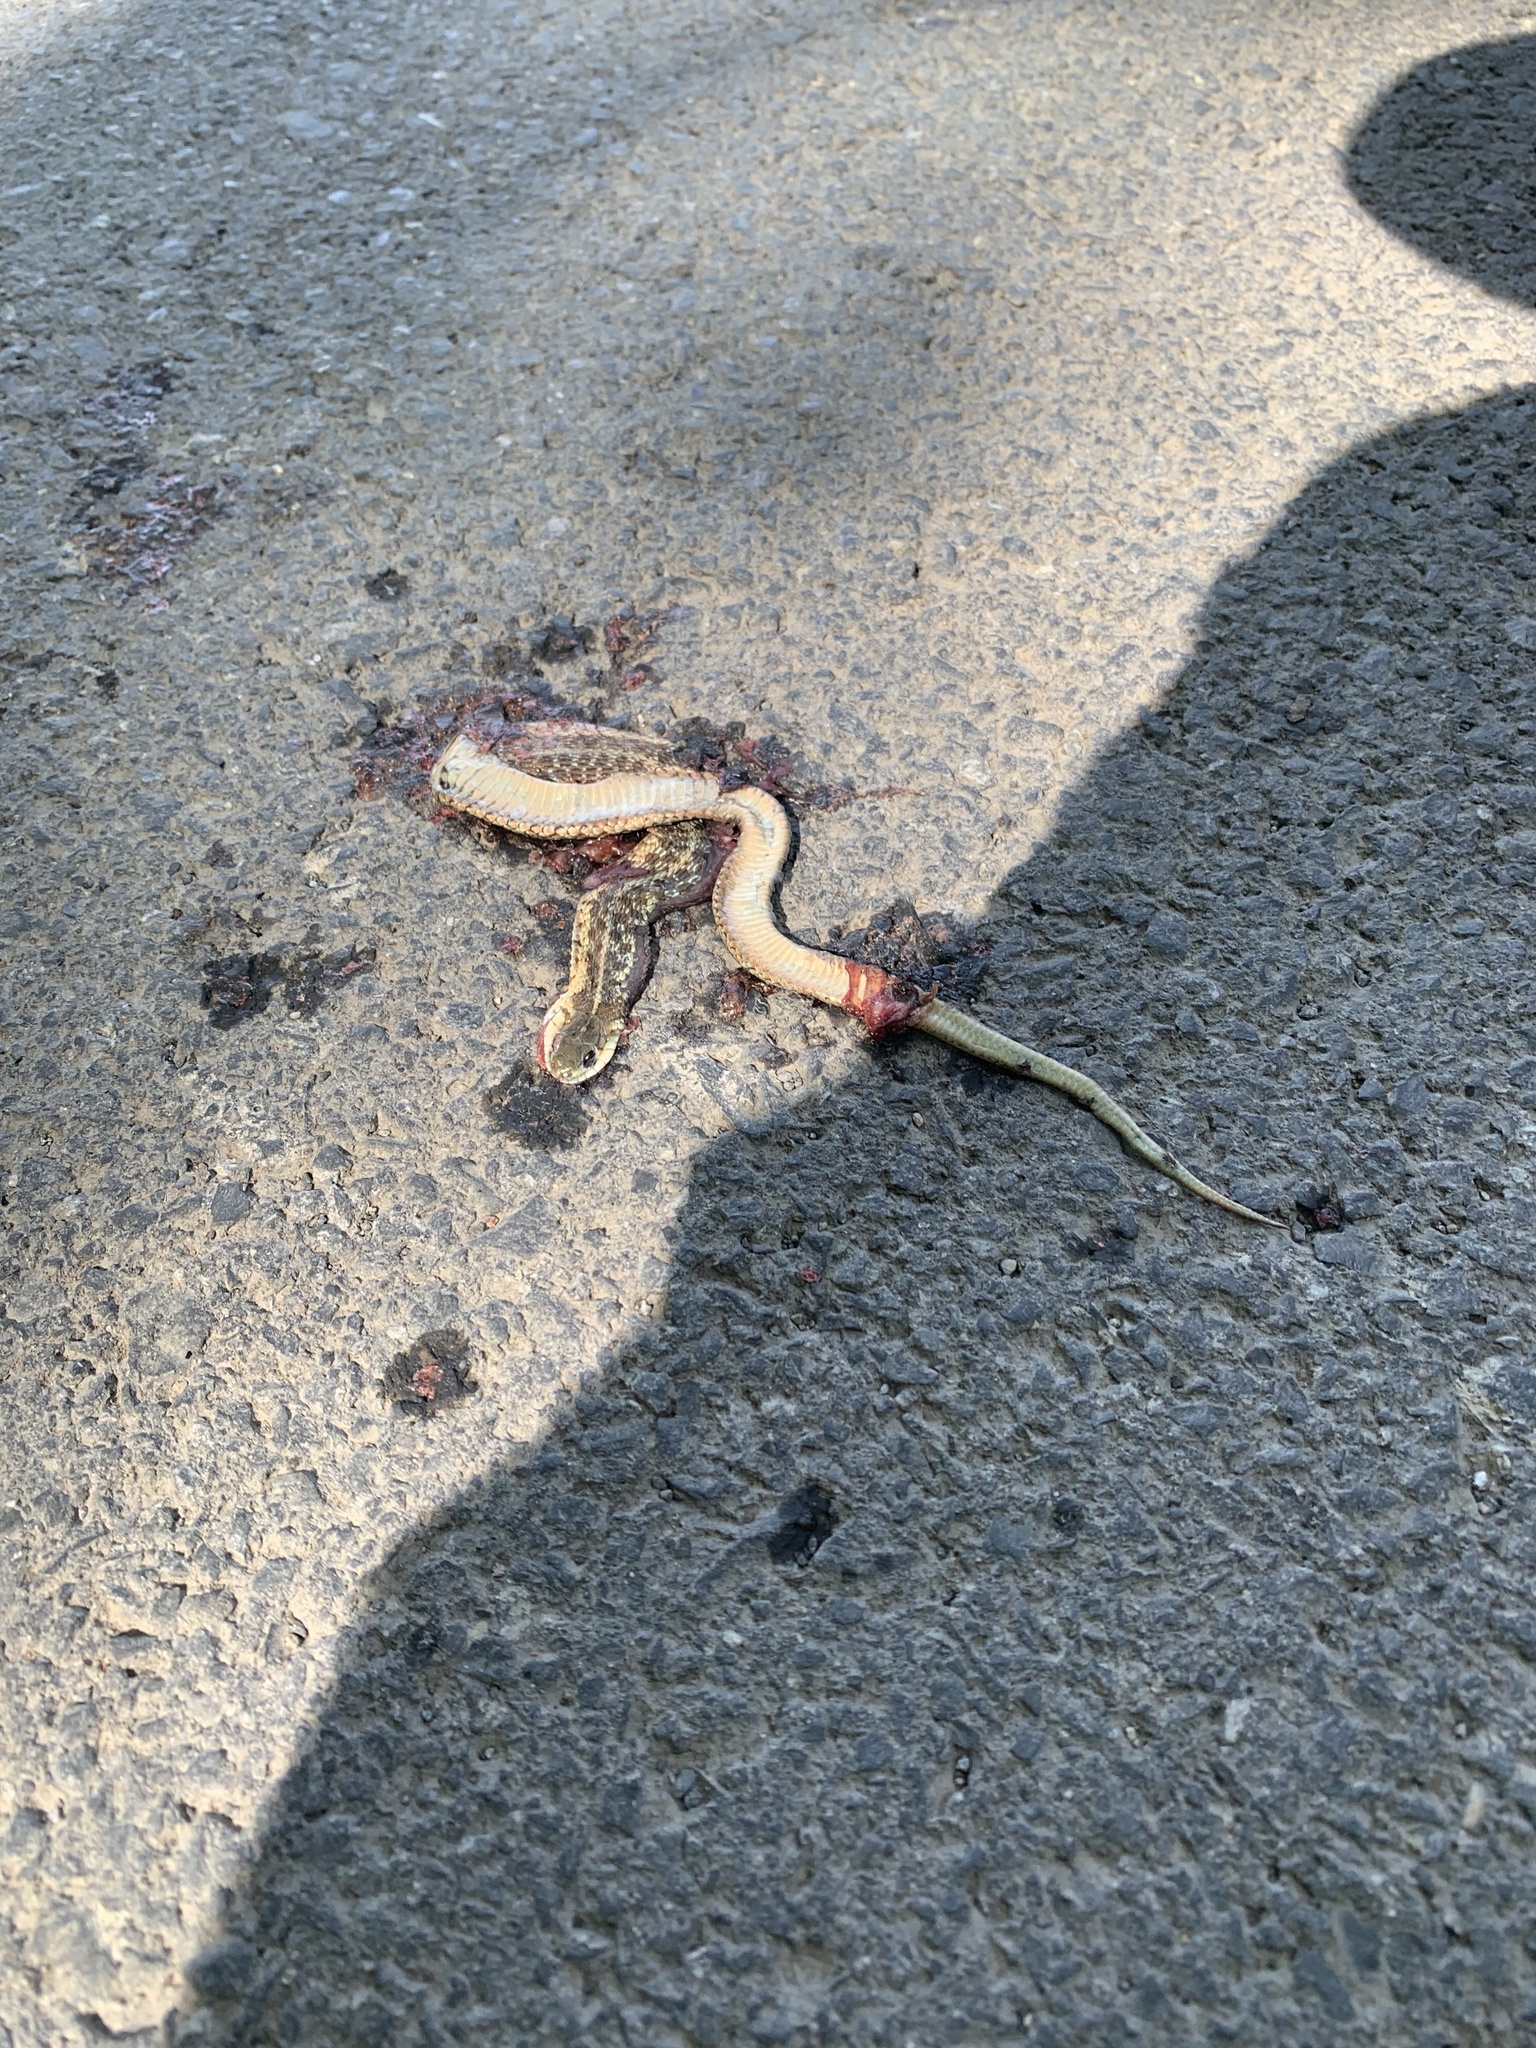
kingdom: Animalia
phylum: Chordata
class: Squamata
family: Colubridae
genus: Thamnophis
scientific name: Thamnophis sirtalis
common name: Common garter snake
